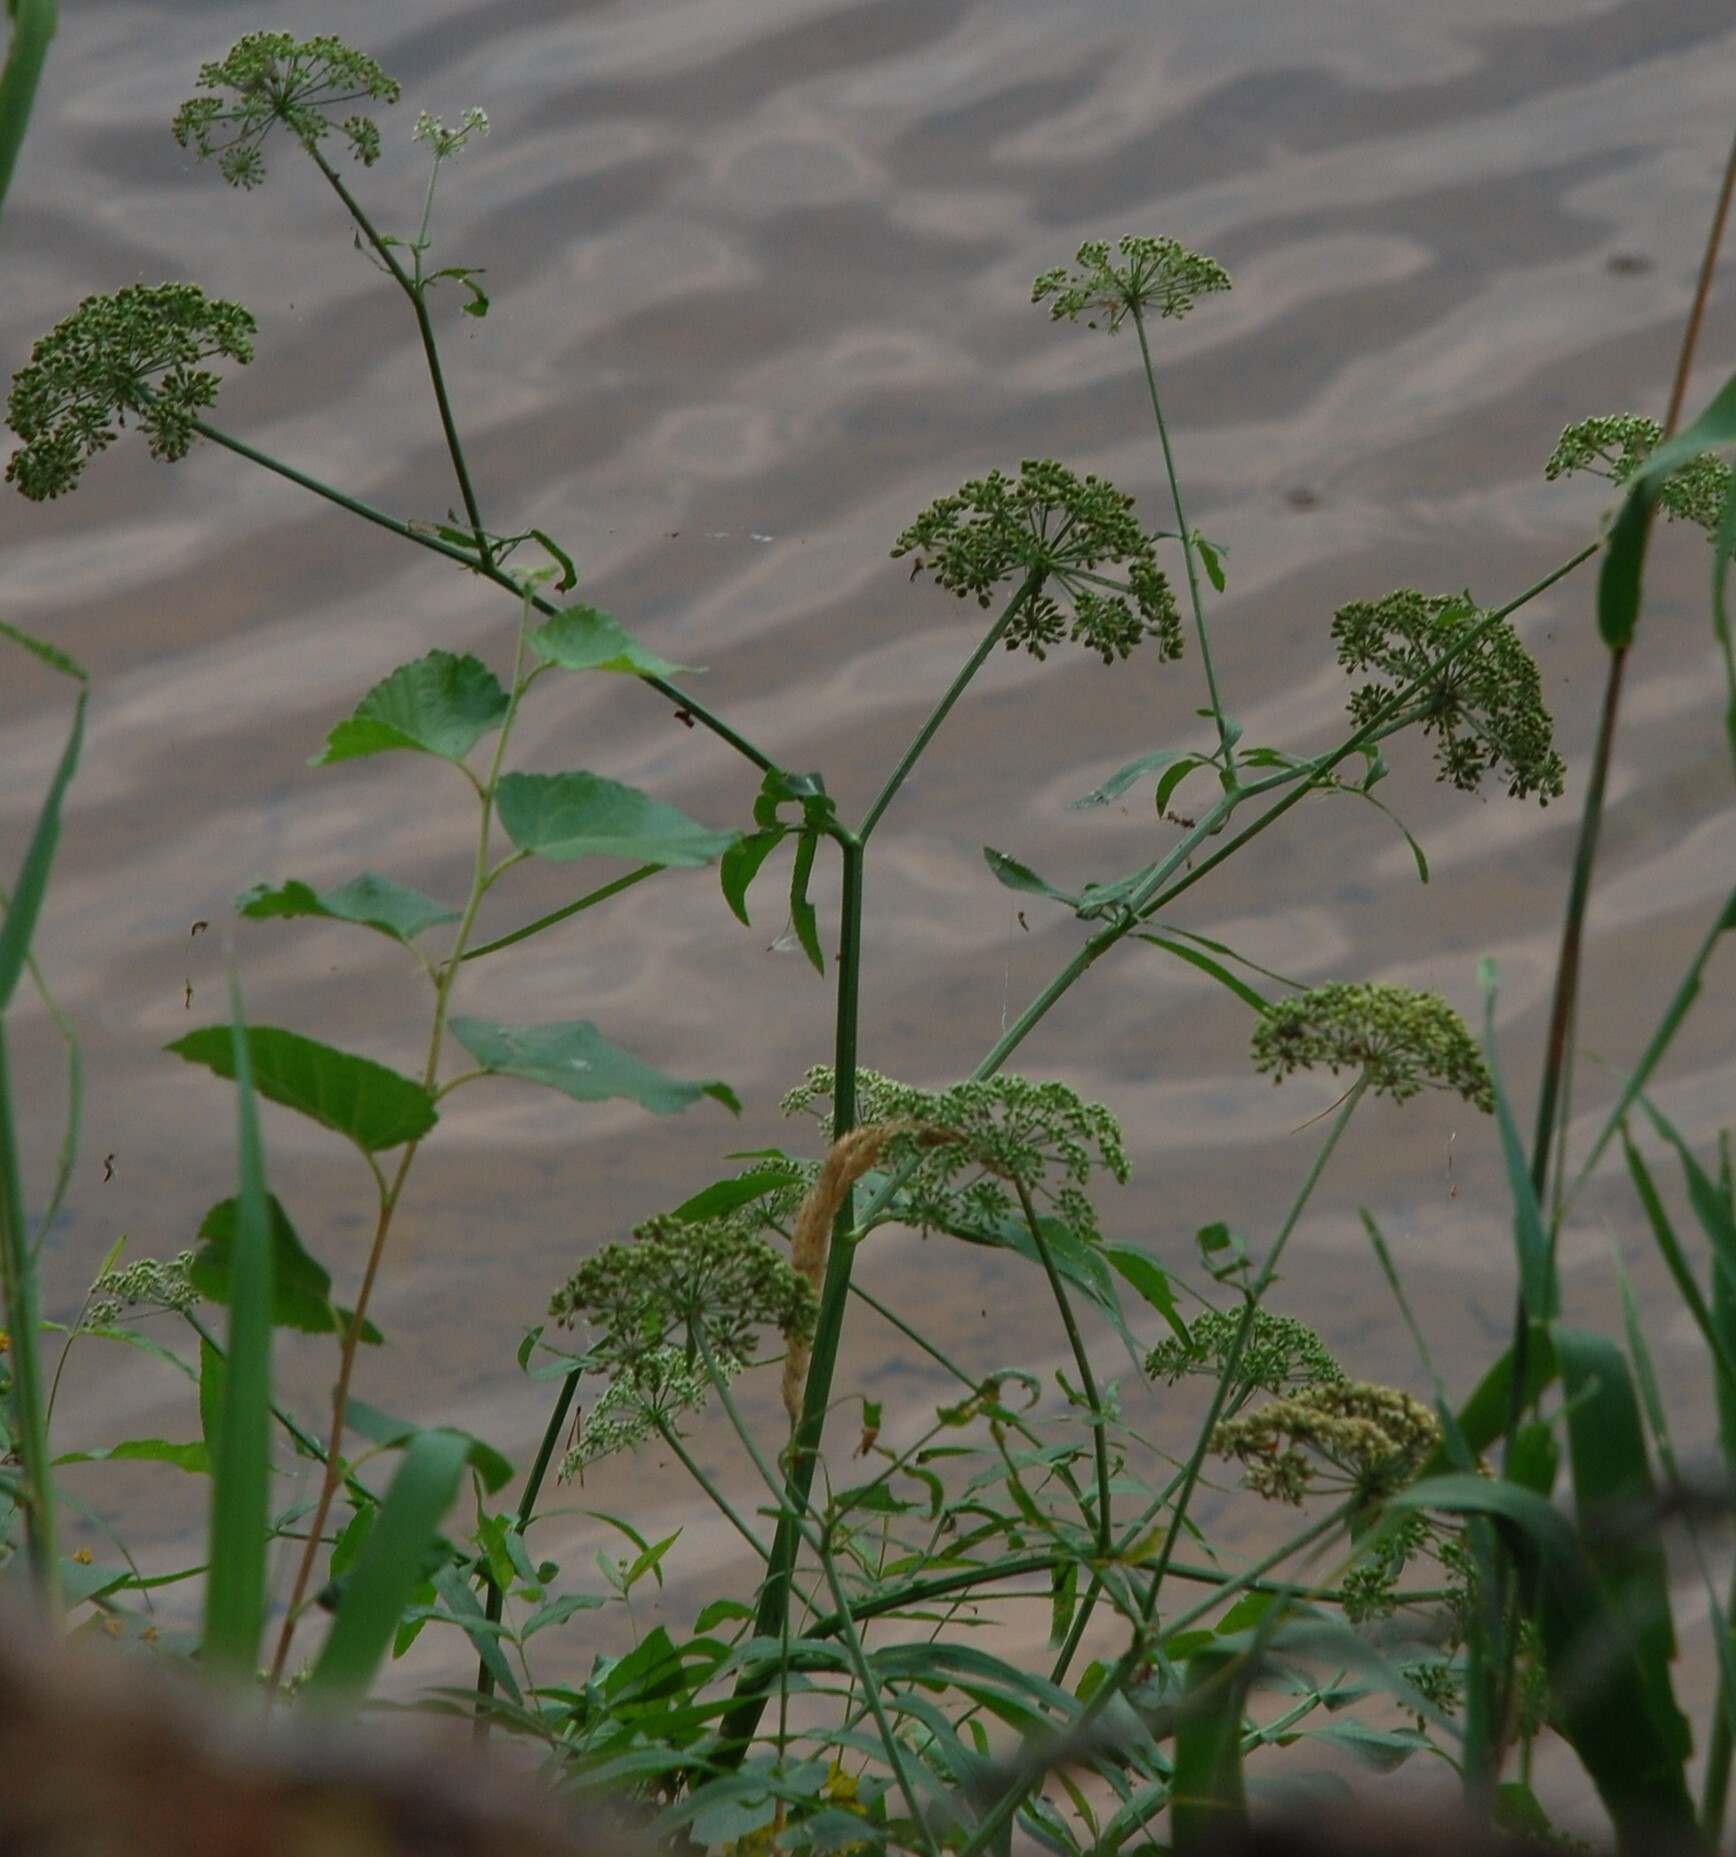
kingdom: Plantae
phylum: Tracheophyta
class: Magnoliopsida
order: Apiales
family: Apiaceae
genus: Sium
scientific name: Sium latifolium
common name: Greater water-parsnip
